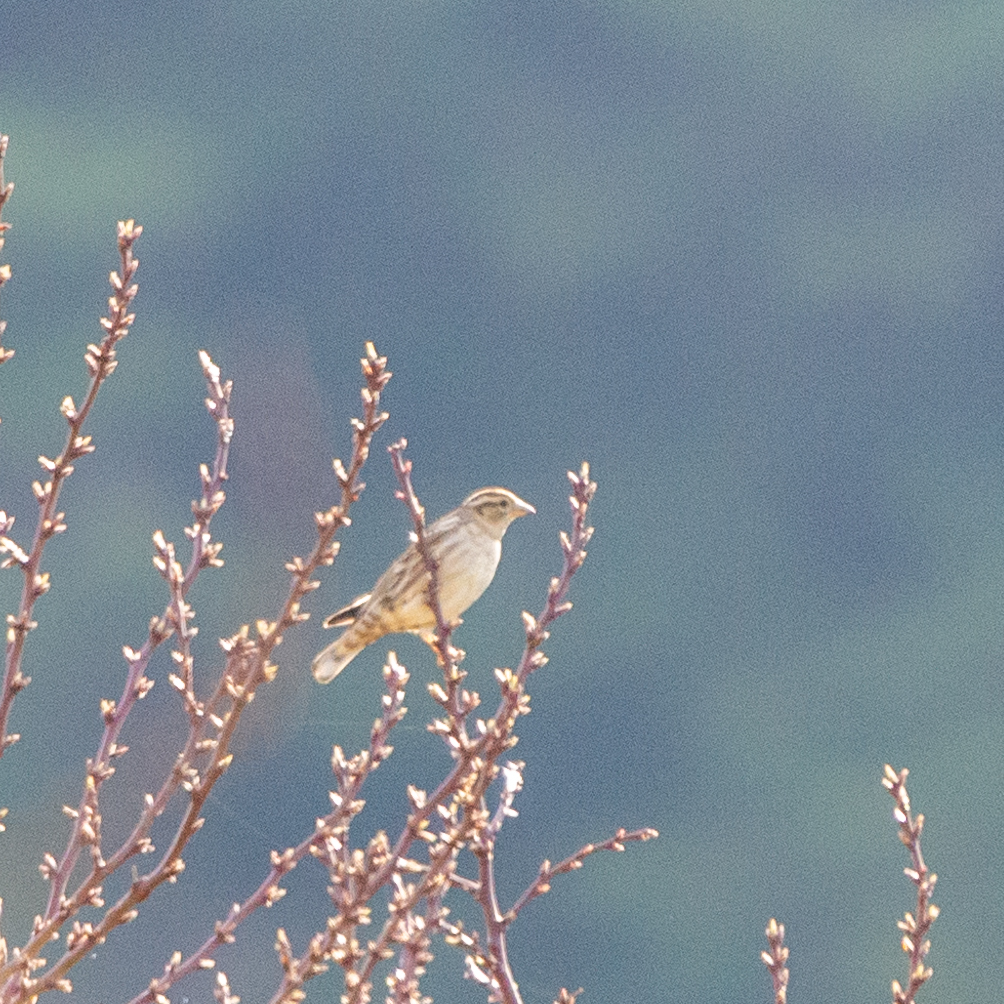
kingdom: Animalia
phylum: Chordata
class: Aves
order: Passeriformes
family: Passeridae
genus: Petronia
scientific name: Petronia petronia
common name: Rock sparrow
